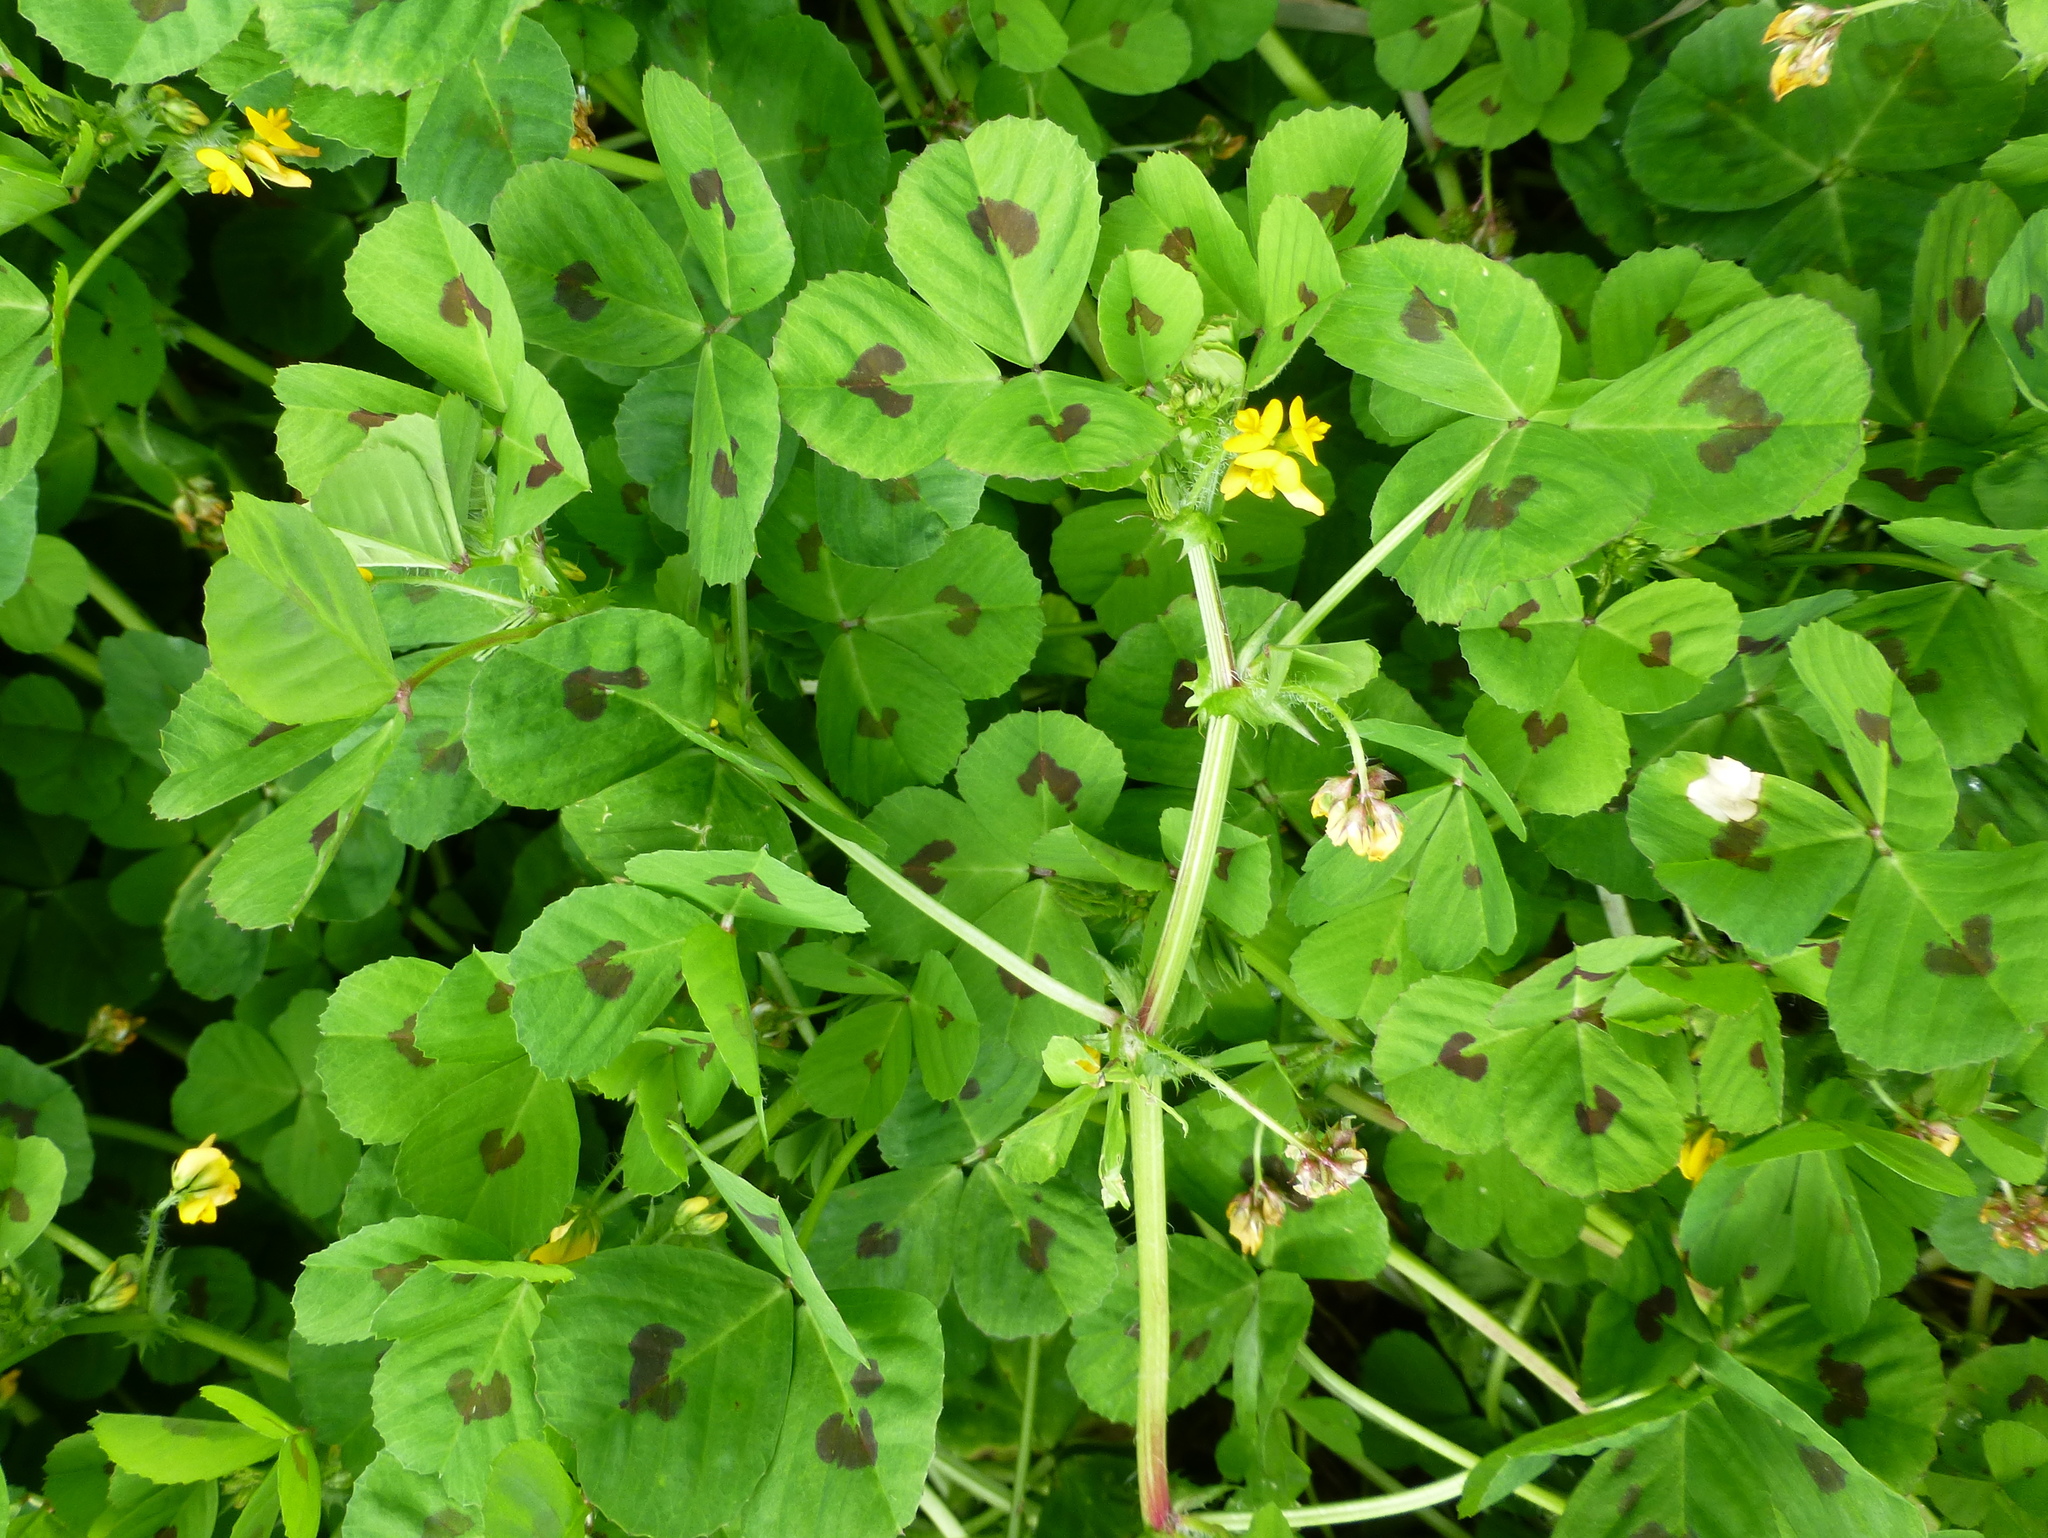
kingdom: Plantae
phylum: Tracheophyta
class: Magnoliopsida
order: Fabales
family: Fabaceae
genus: Medicago
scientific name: Medicago arabica
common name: Spotted medick
